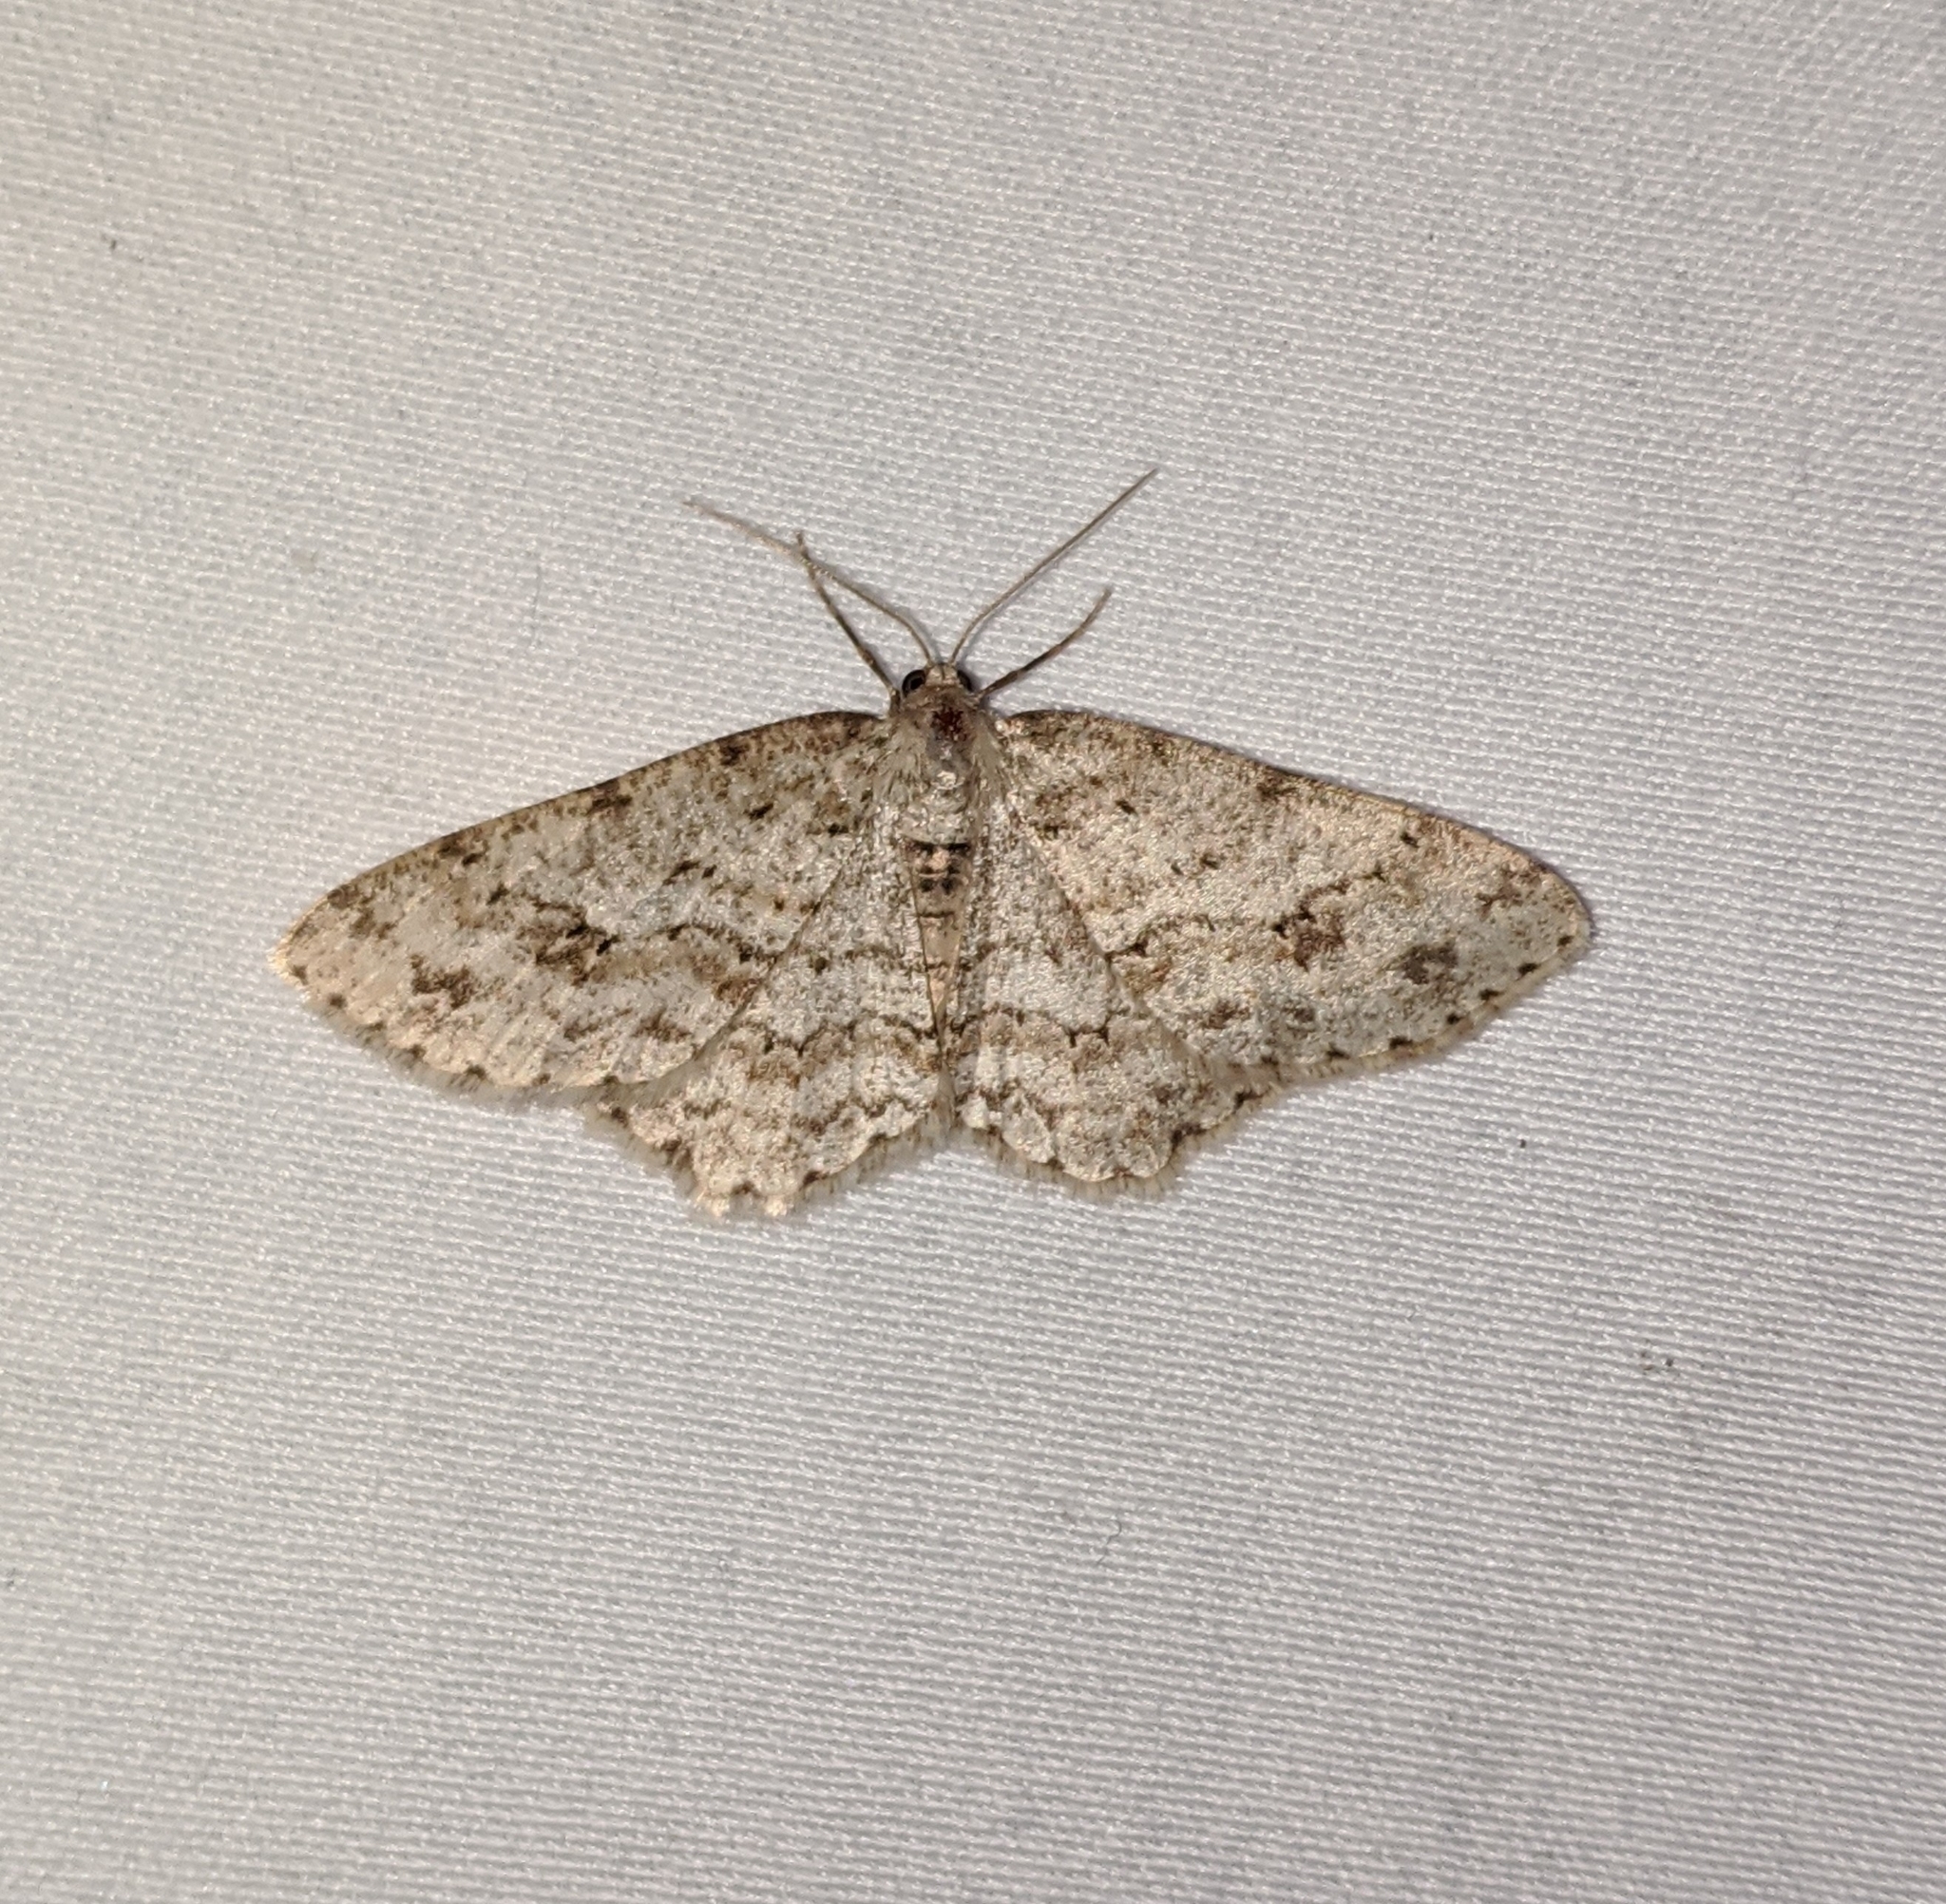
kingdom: Animalia
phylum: Arthropoda
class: Insecta
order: Lepidoptera
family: Geometridae
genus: Ectropis
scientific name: Ectropis crepuscularia
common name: Engrailed
